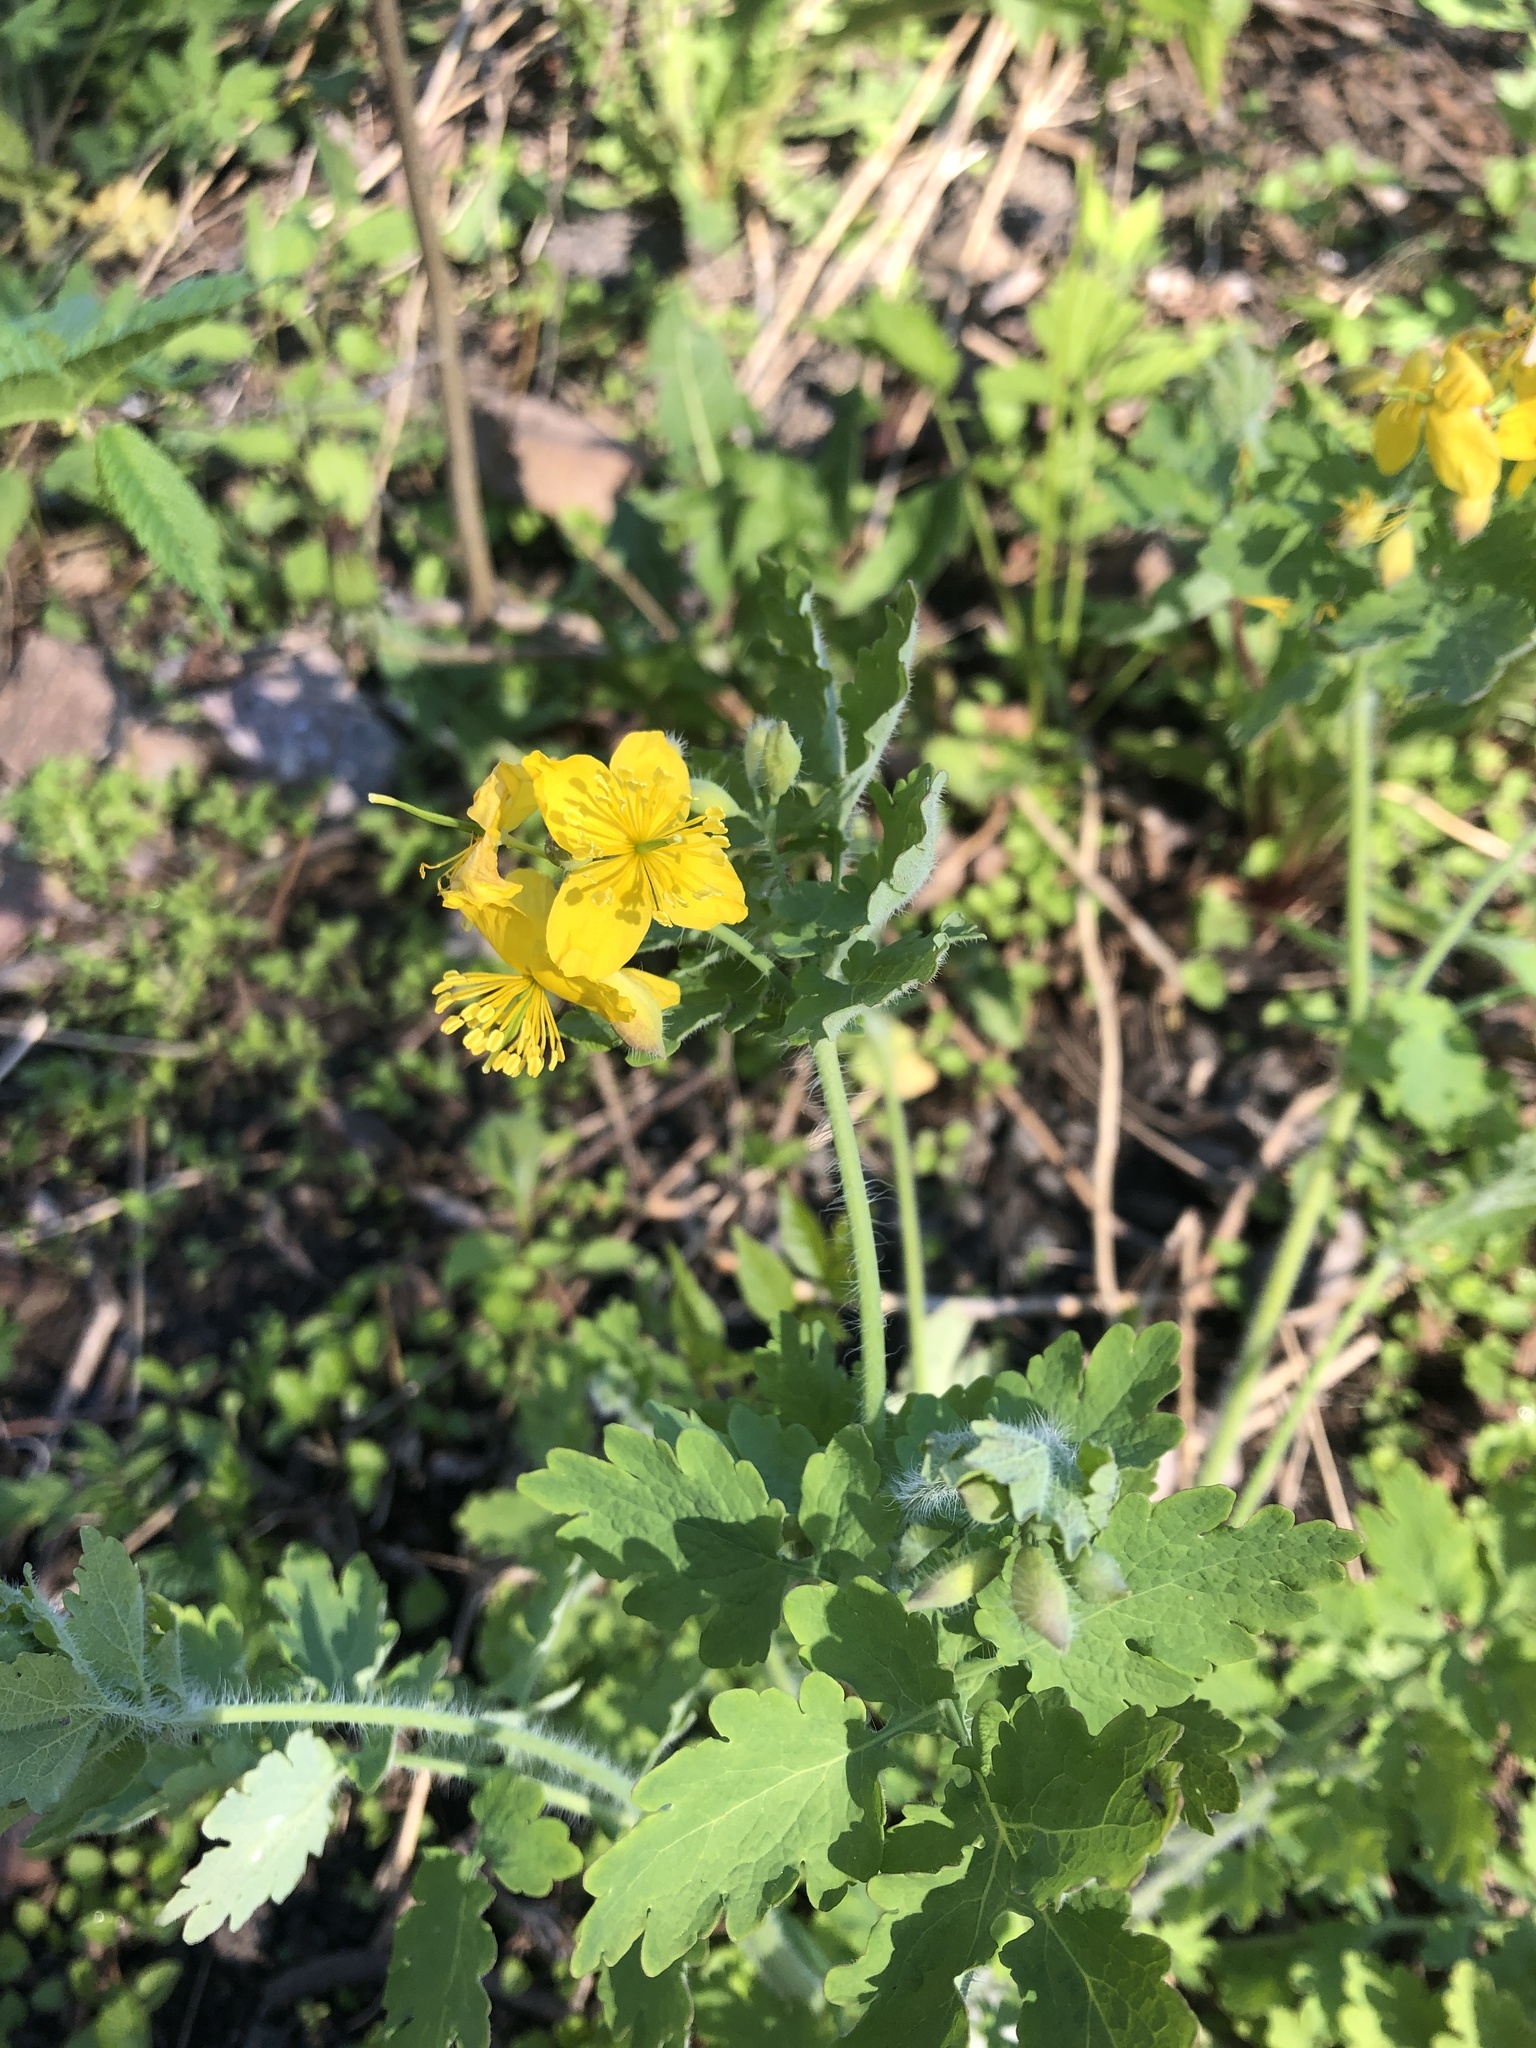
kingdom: Plantae
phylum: Tracheophyta
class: Magnoliopsida
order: Ranunculales
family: Papaveraceae
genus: Chelidonium
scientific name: Chelidonium majus
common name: Greater celandine
